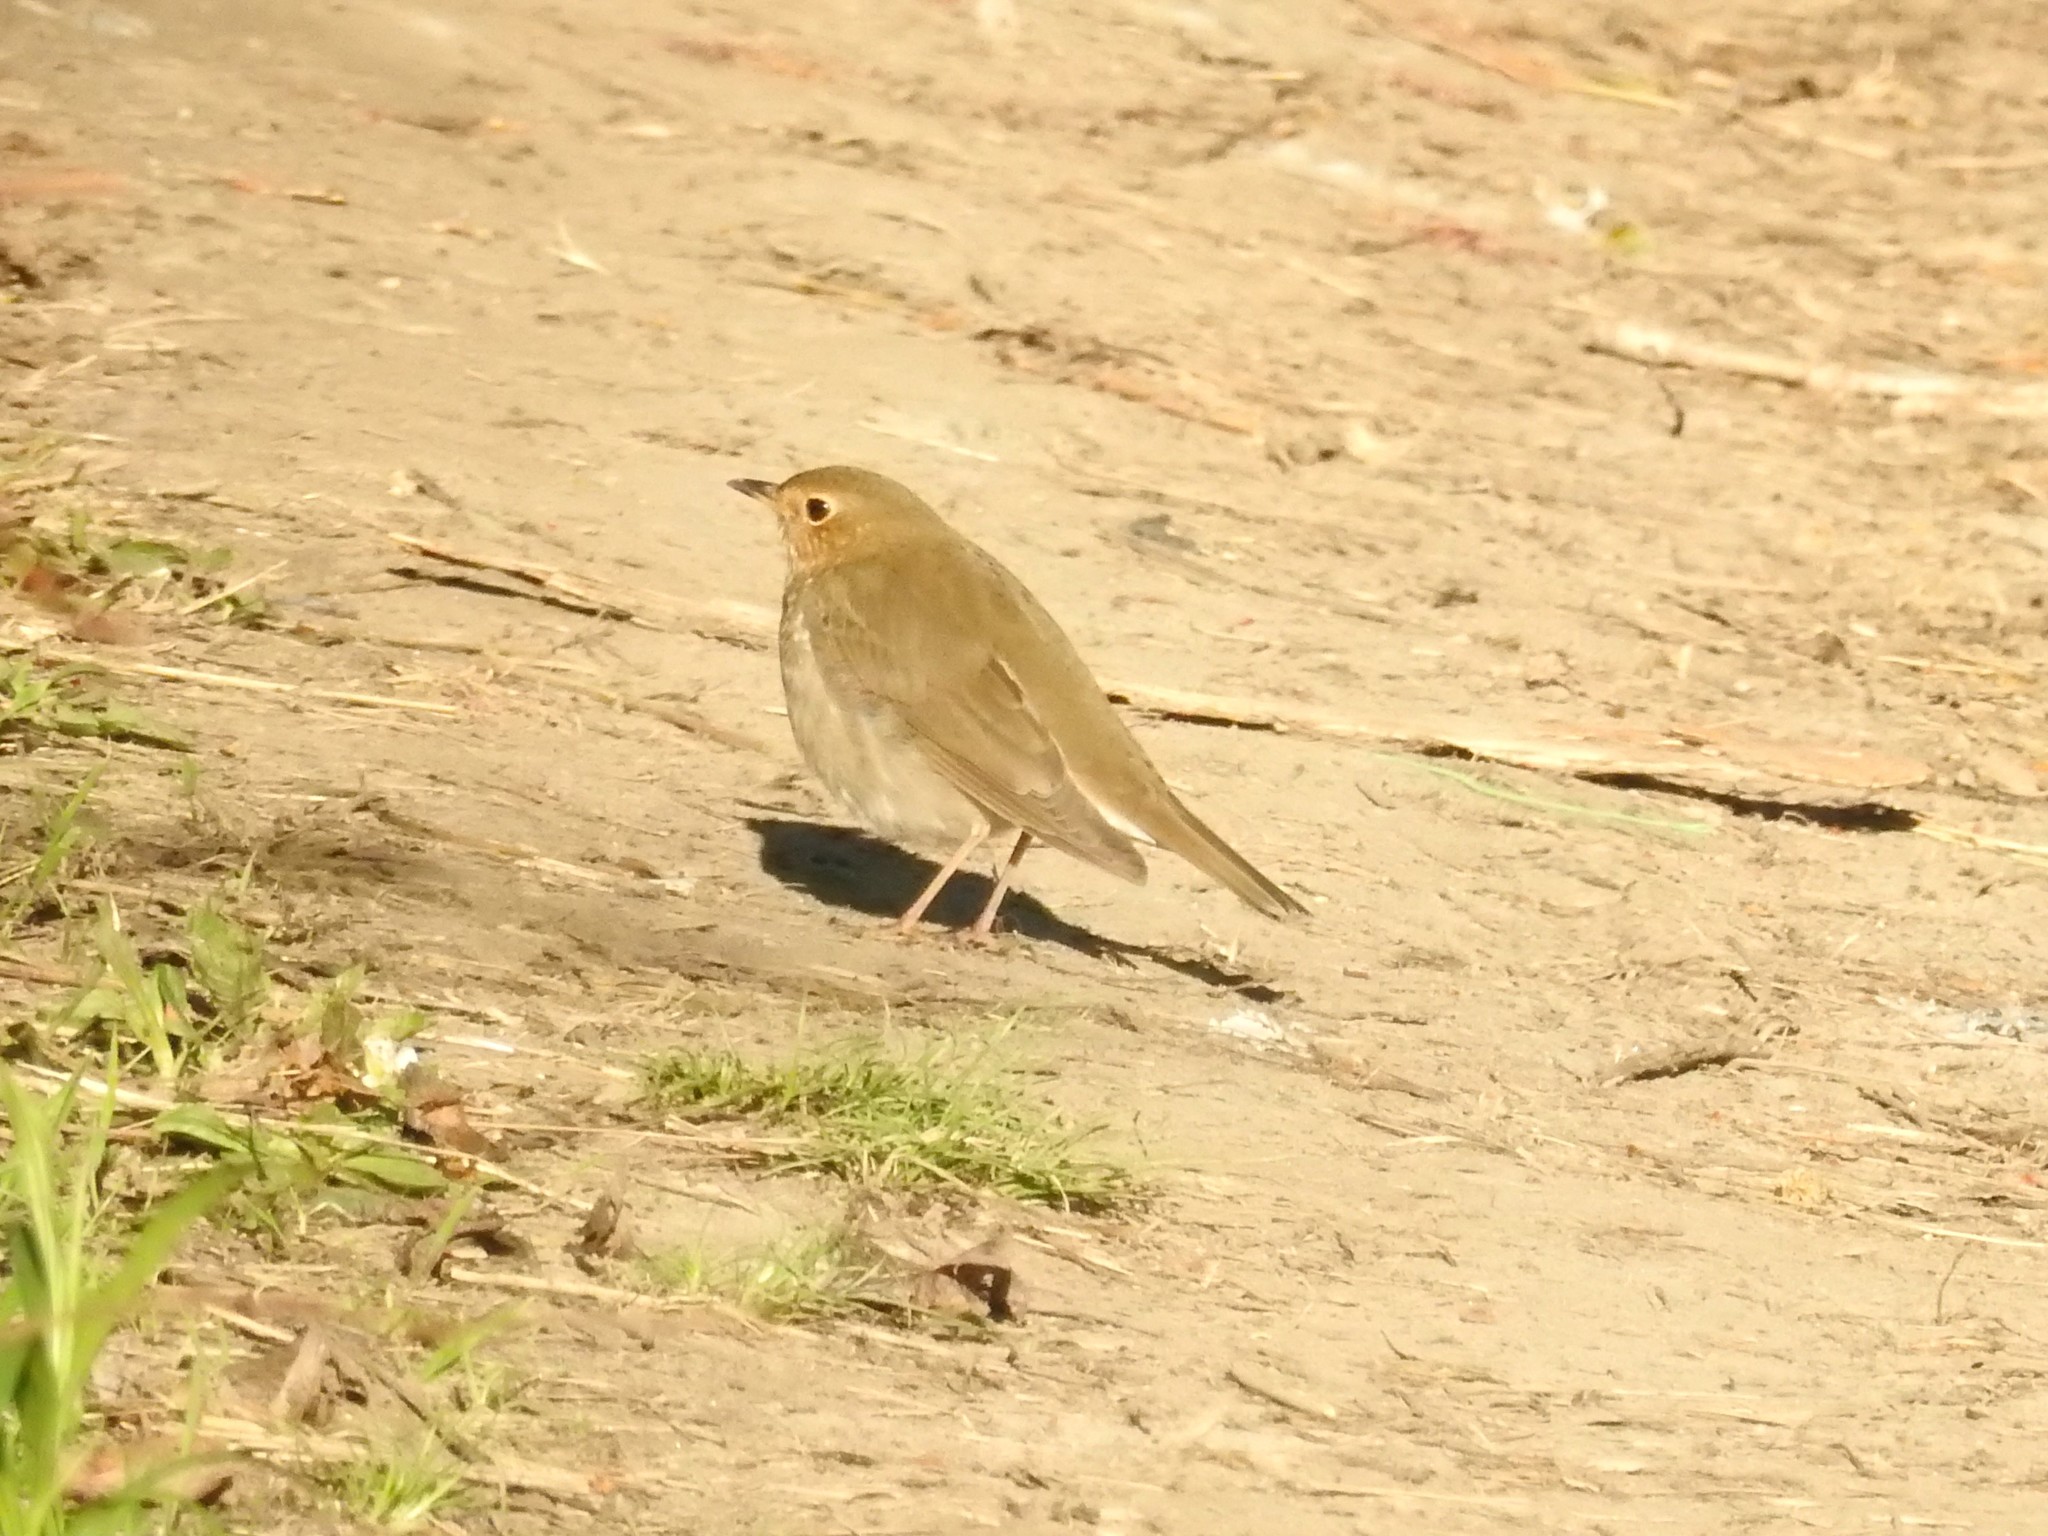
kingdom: Animalia
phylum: Chordata
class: Aves
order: Passeriformes
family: Turdidae
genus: Catharus
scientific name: Catharus ustulatus
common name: Swainson's thrush
